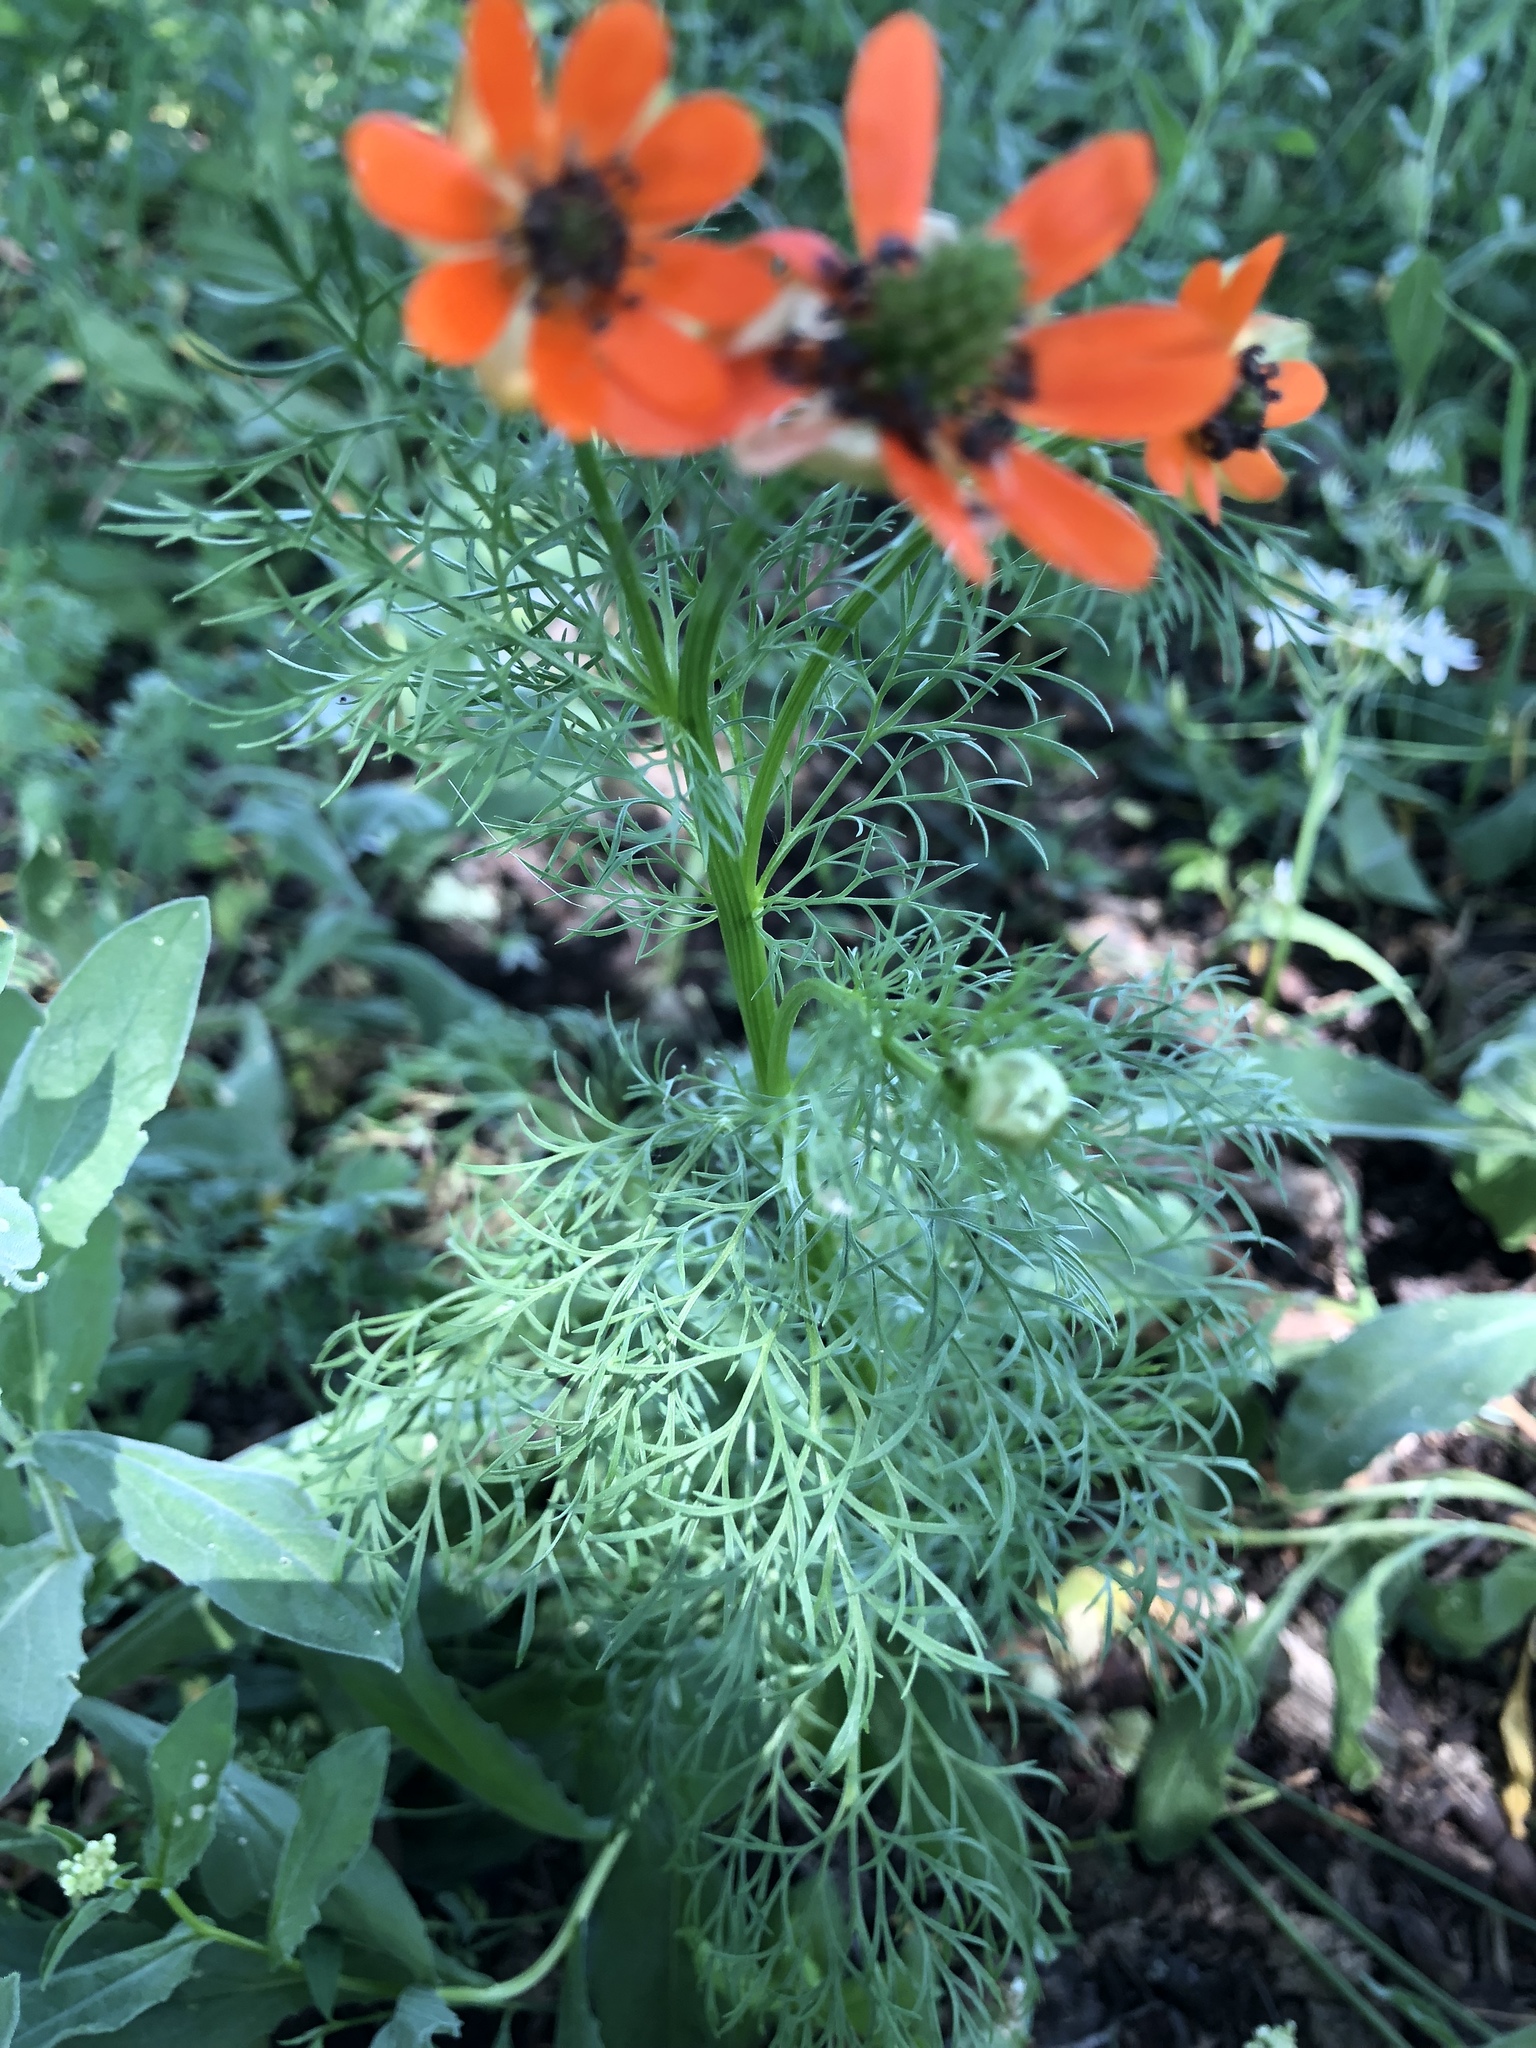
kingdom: Plantae
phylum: Tracheophyta
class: Magnoliopsida
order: Ranunculales
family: Ranunculaceae
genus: Adonis
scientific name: Adonis aestivalis
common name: Summer pheasant's-eye
